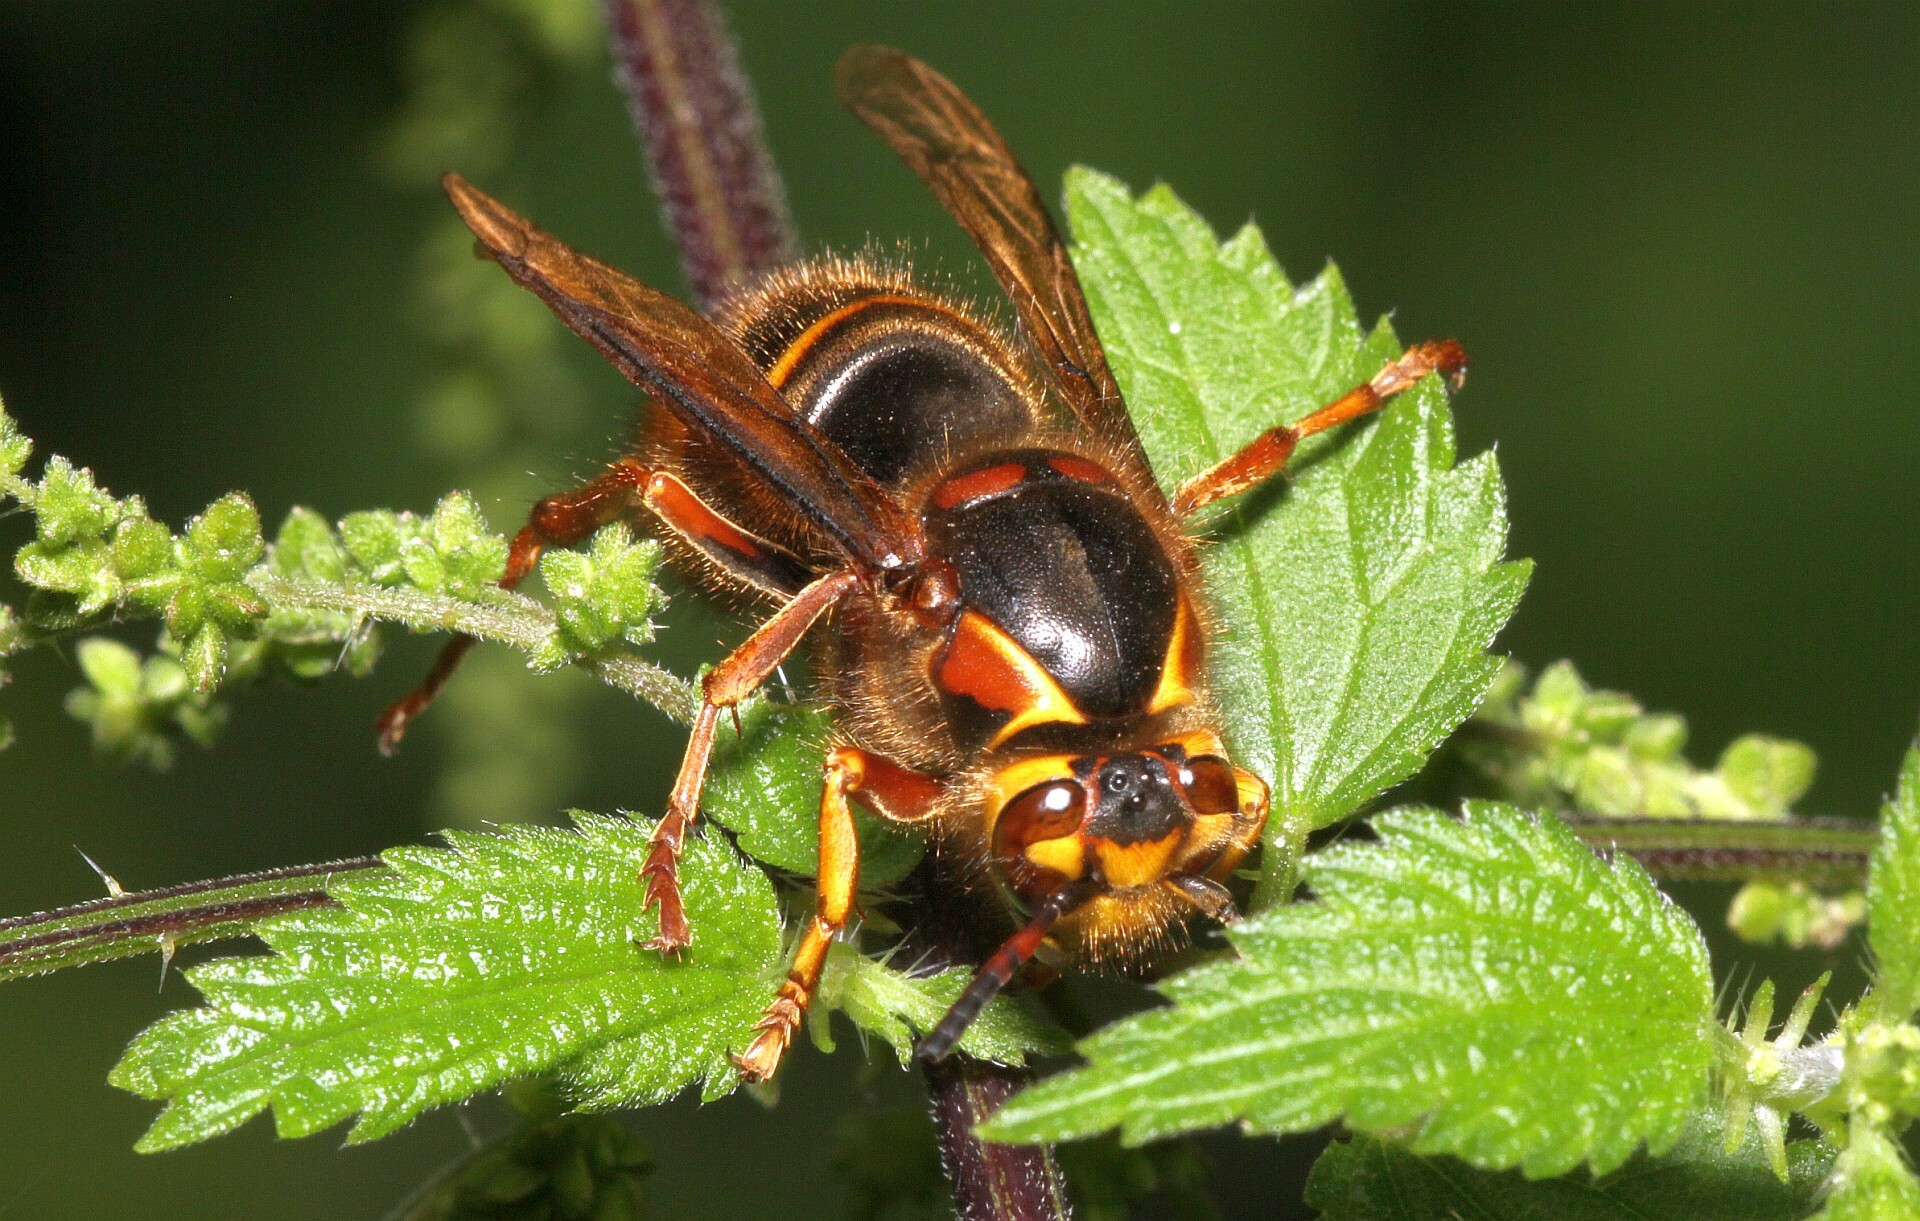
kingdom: Animalia
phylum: Arthropoda
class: Insecta
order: Hymenoptera
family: Vespidae
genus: Dolichovespula
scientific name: Dolichovespula media
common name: Median wasp
